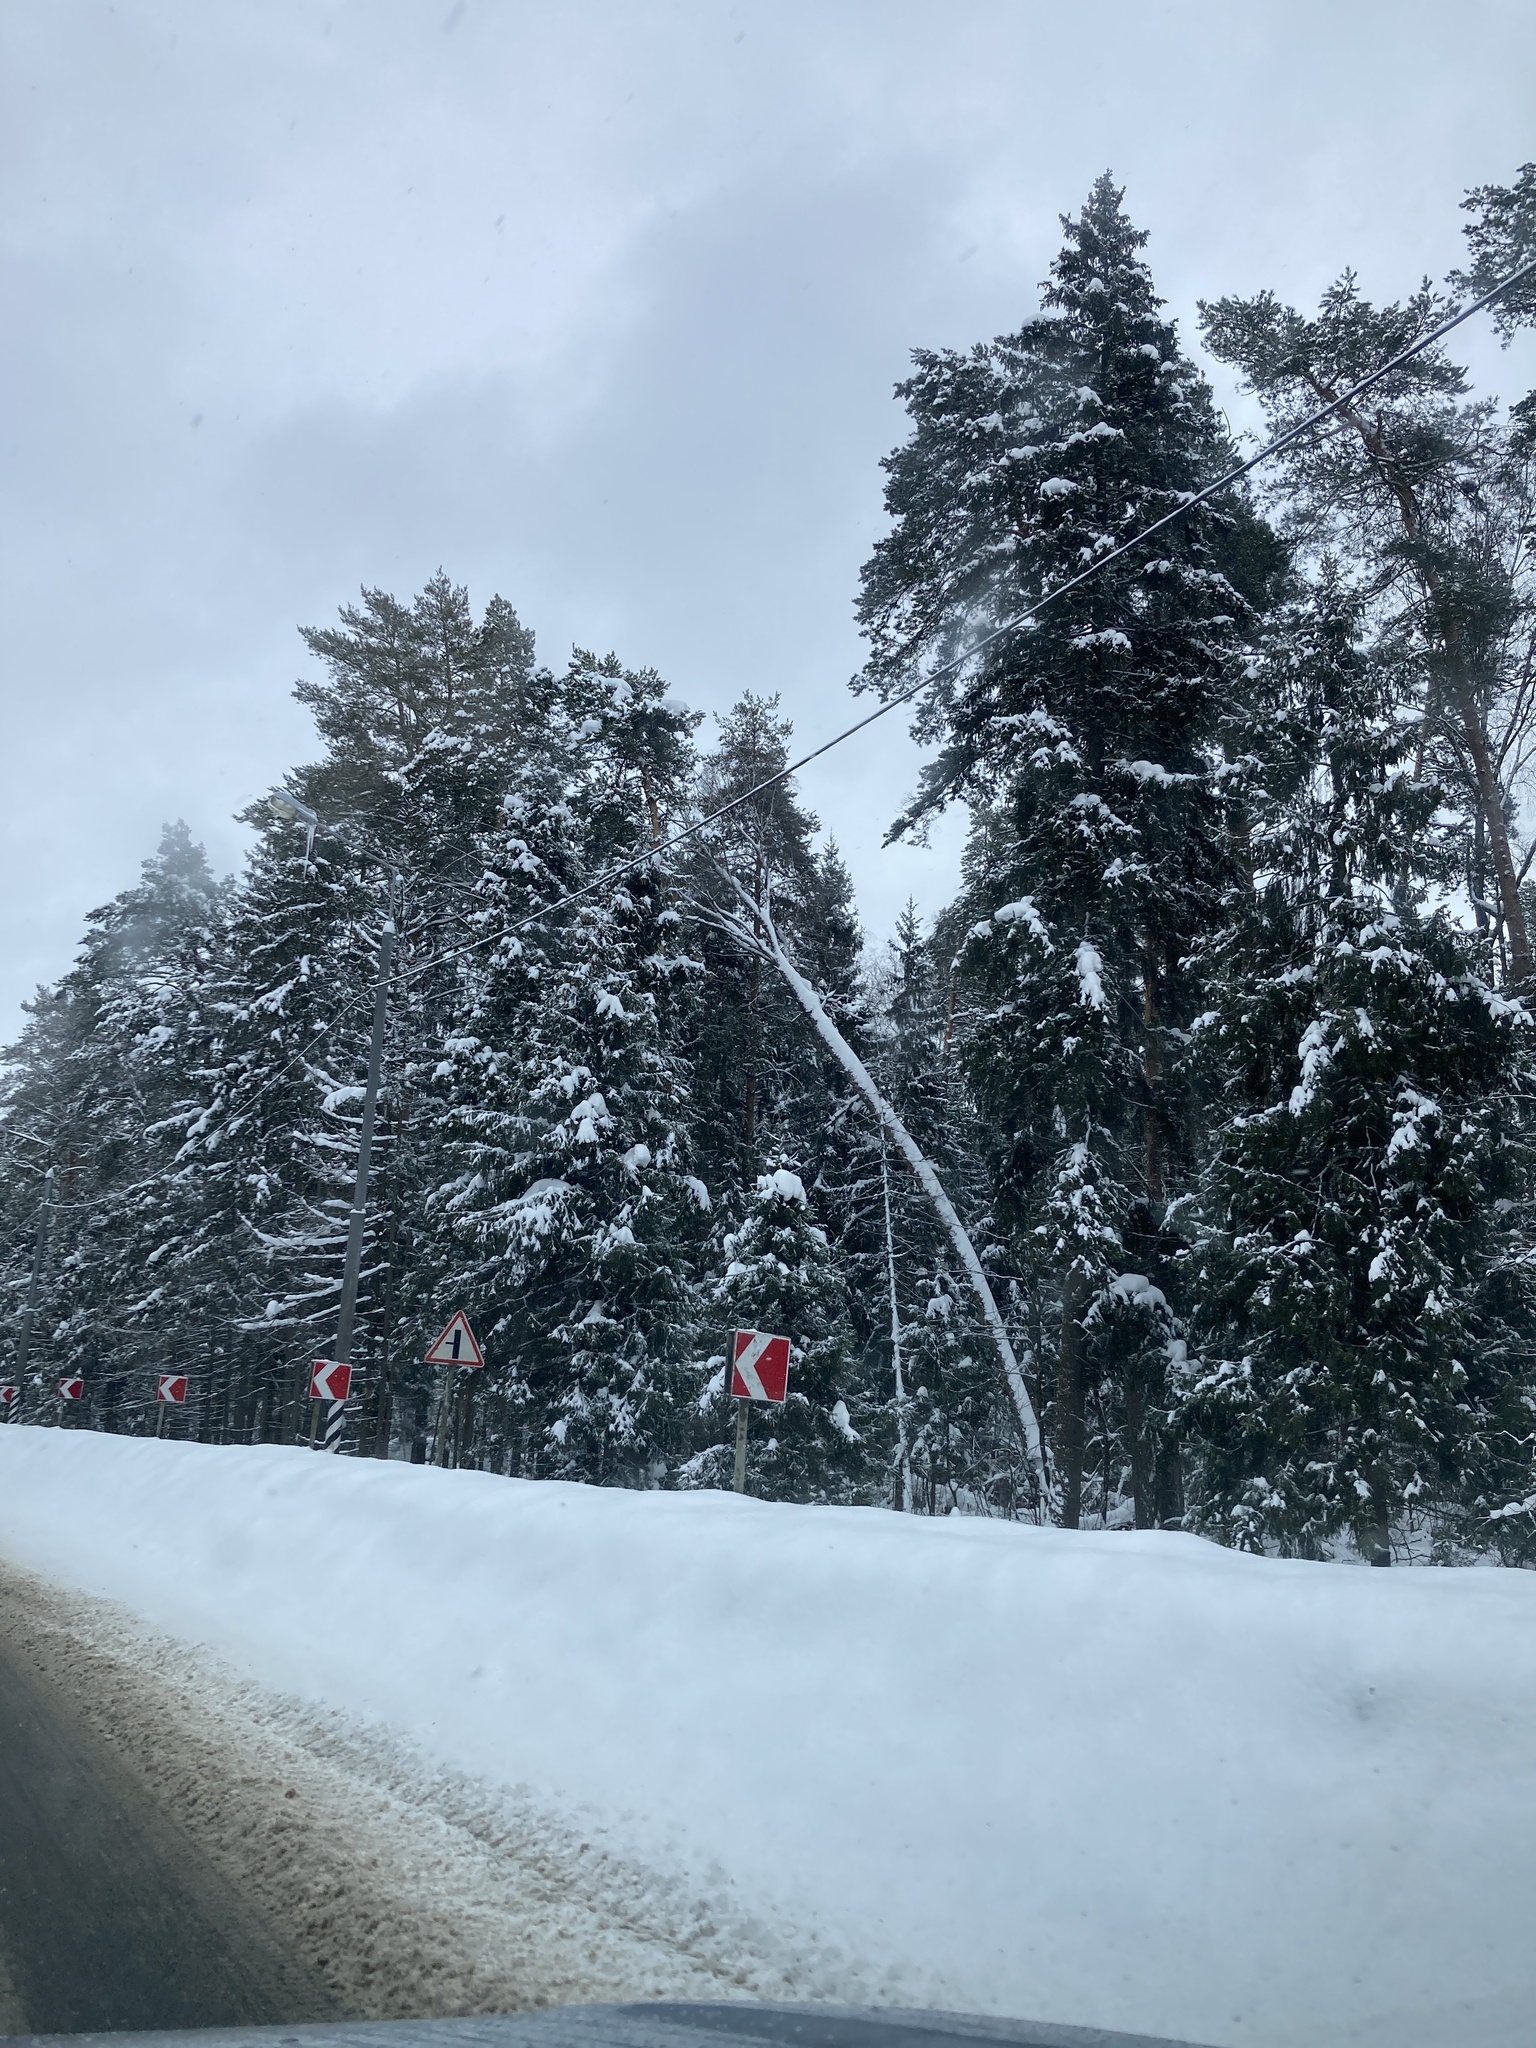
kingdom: Plantae
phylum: Tracheophyta
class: Pinopsida
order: Pinales
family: Pinaceae
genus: Picea
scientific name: Picea abies
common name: Norway spruce
